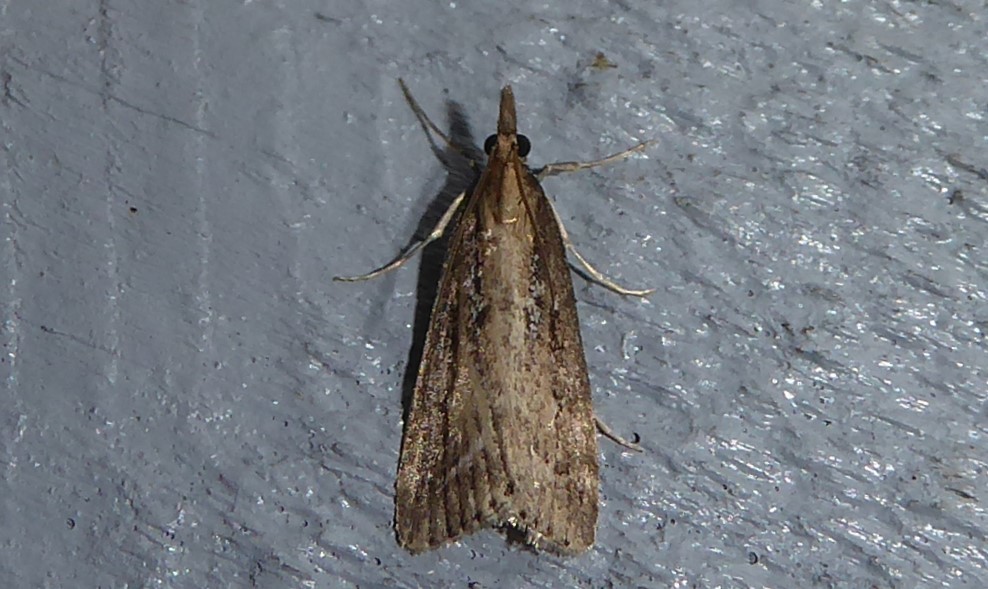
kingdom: Animalia
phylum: Arthropoda
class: Insecta
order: Lepidoptera
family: Crambidae
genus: Eudonia
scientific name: Eudonia octophora
